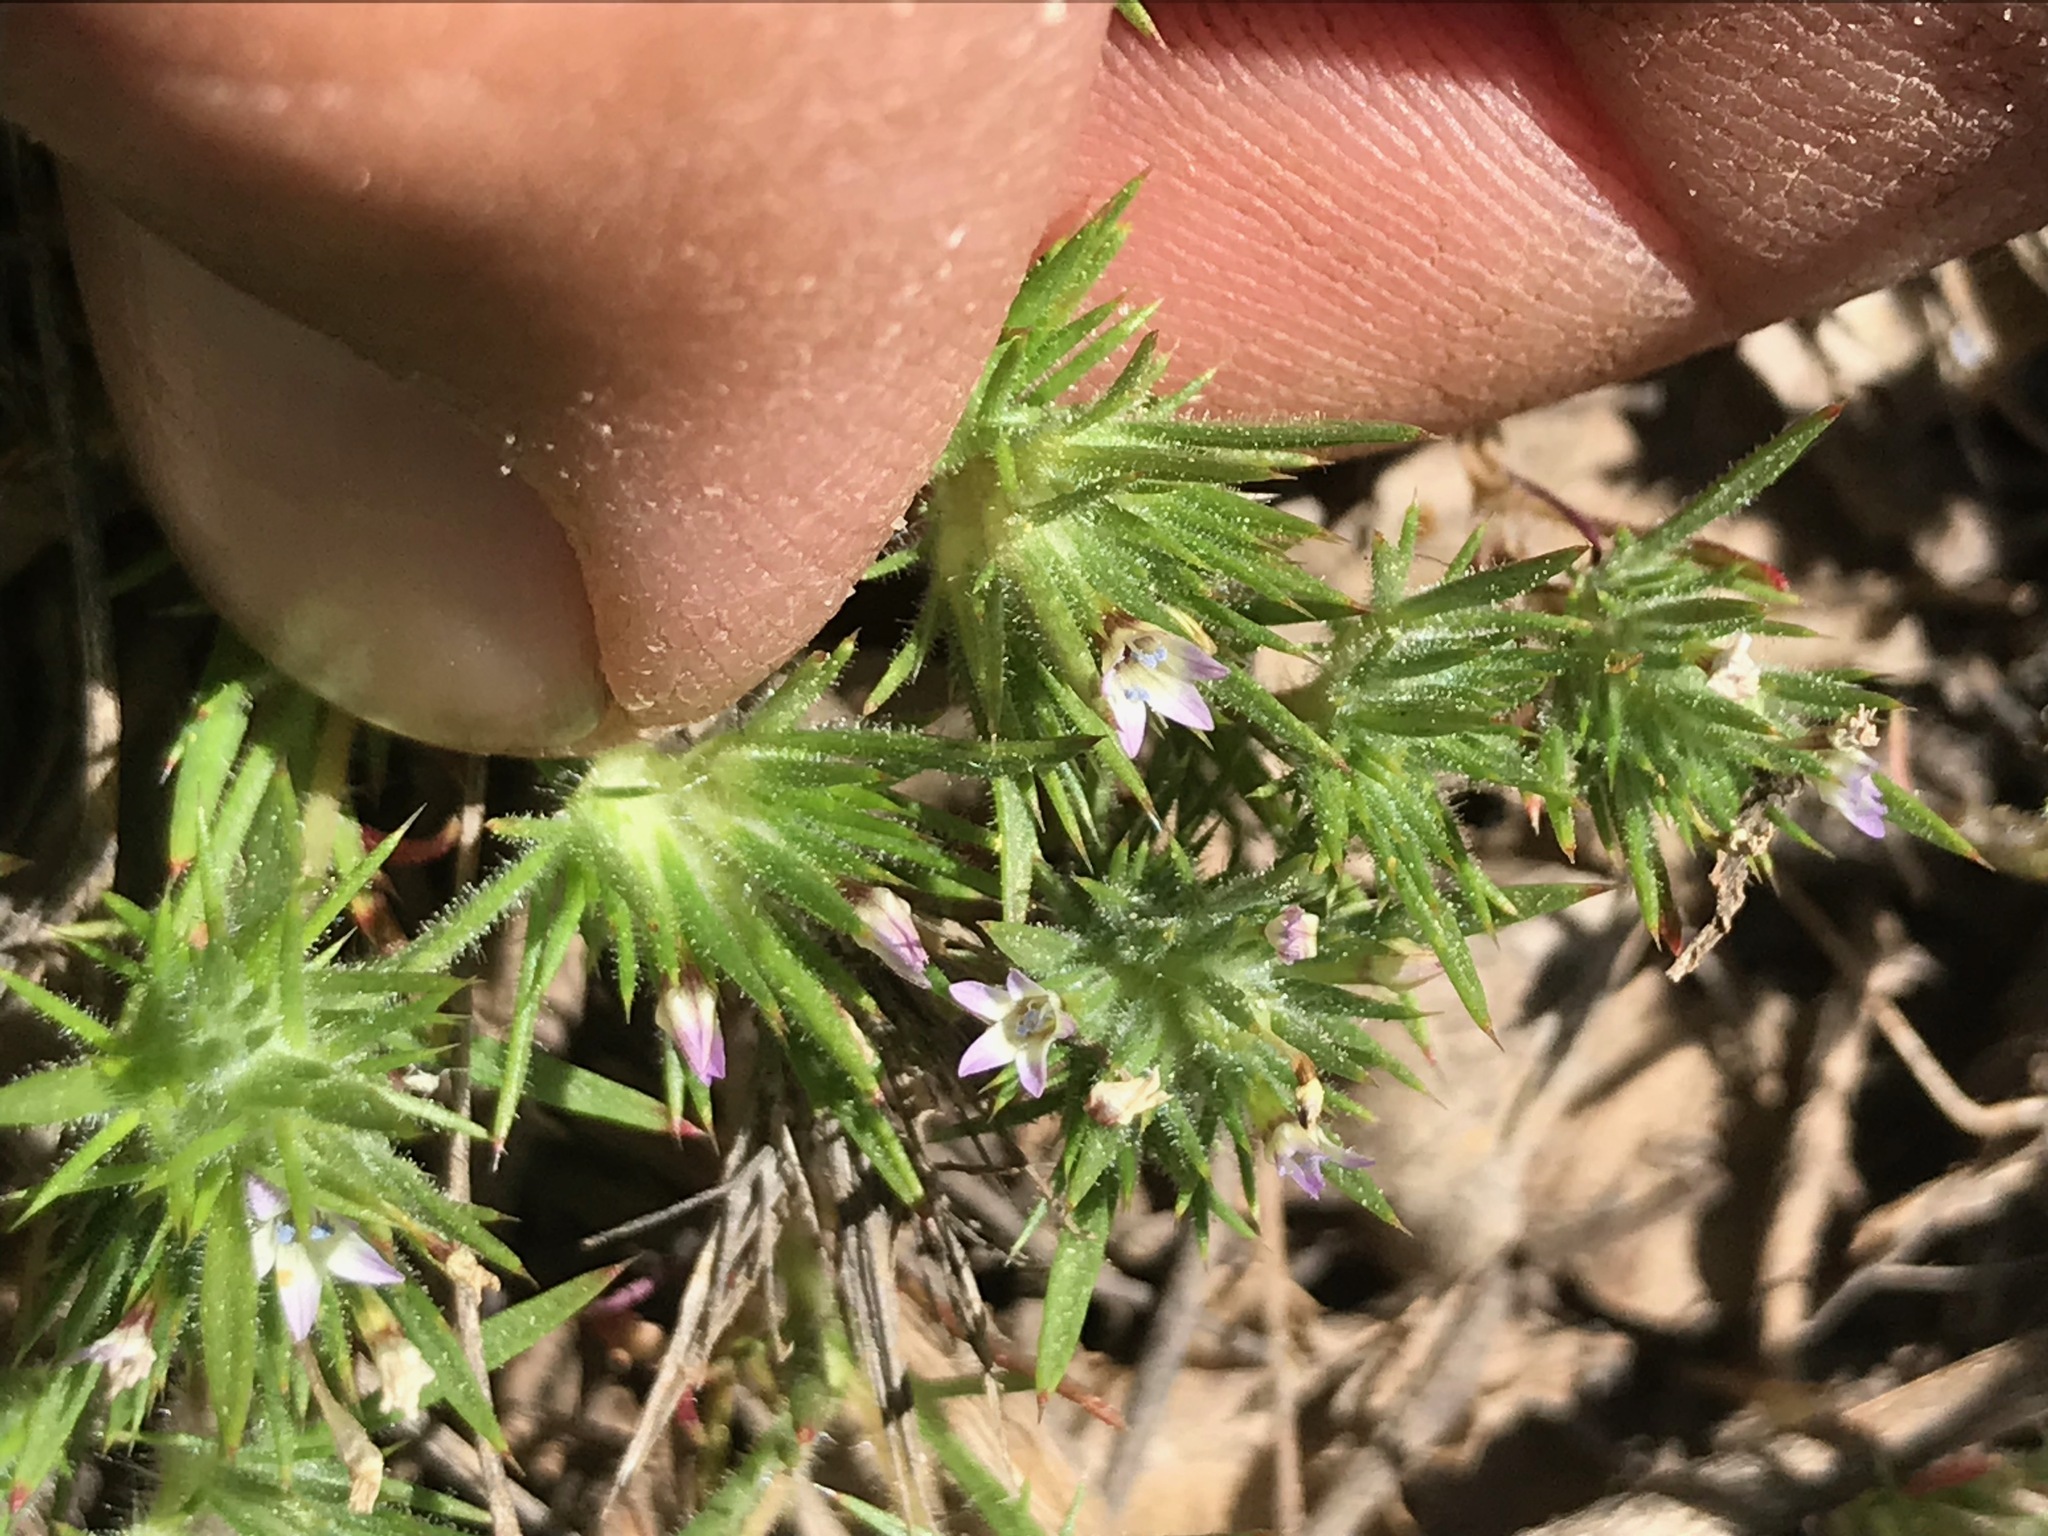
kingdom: Plantae
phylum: Tracheophyta
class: Magnoliopsida
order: Ericales
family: Polemoniaceae
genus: Navarretia
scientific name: Navarretia peninsularis
